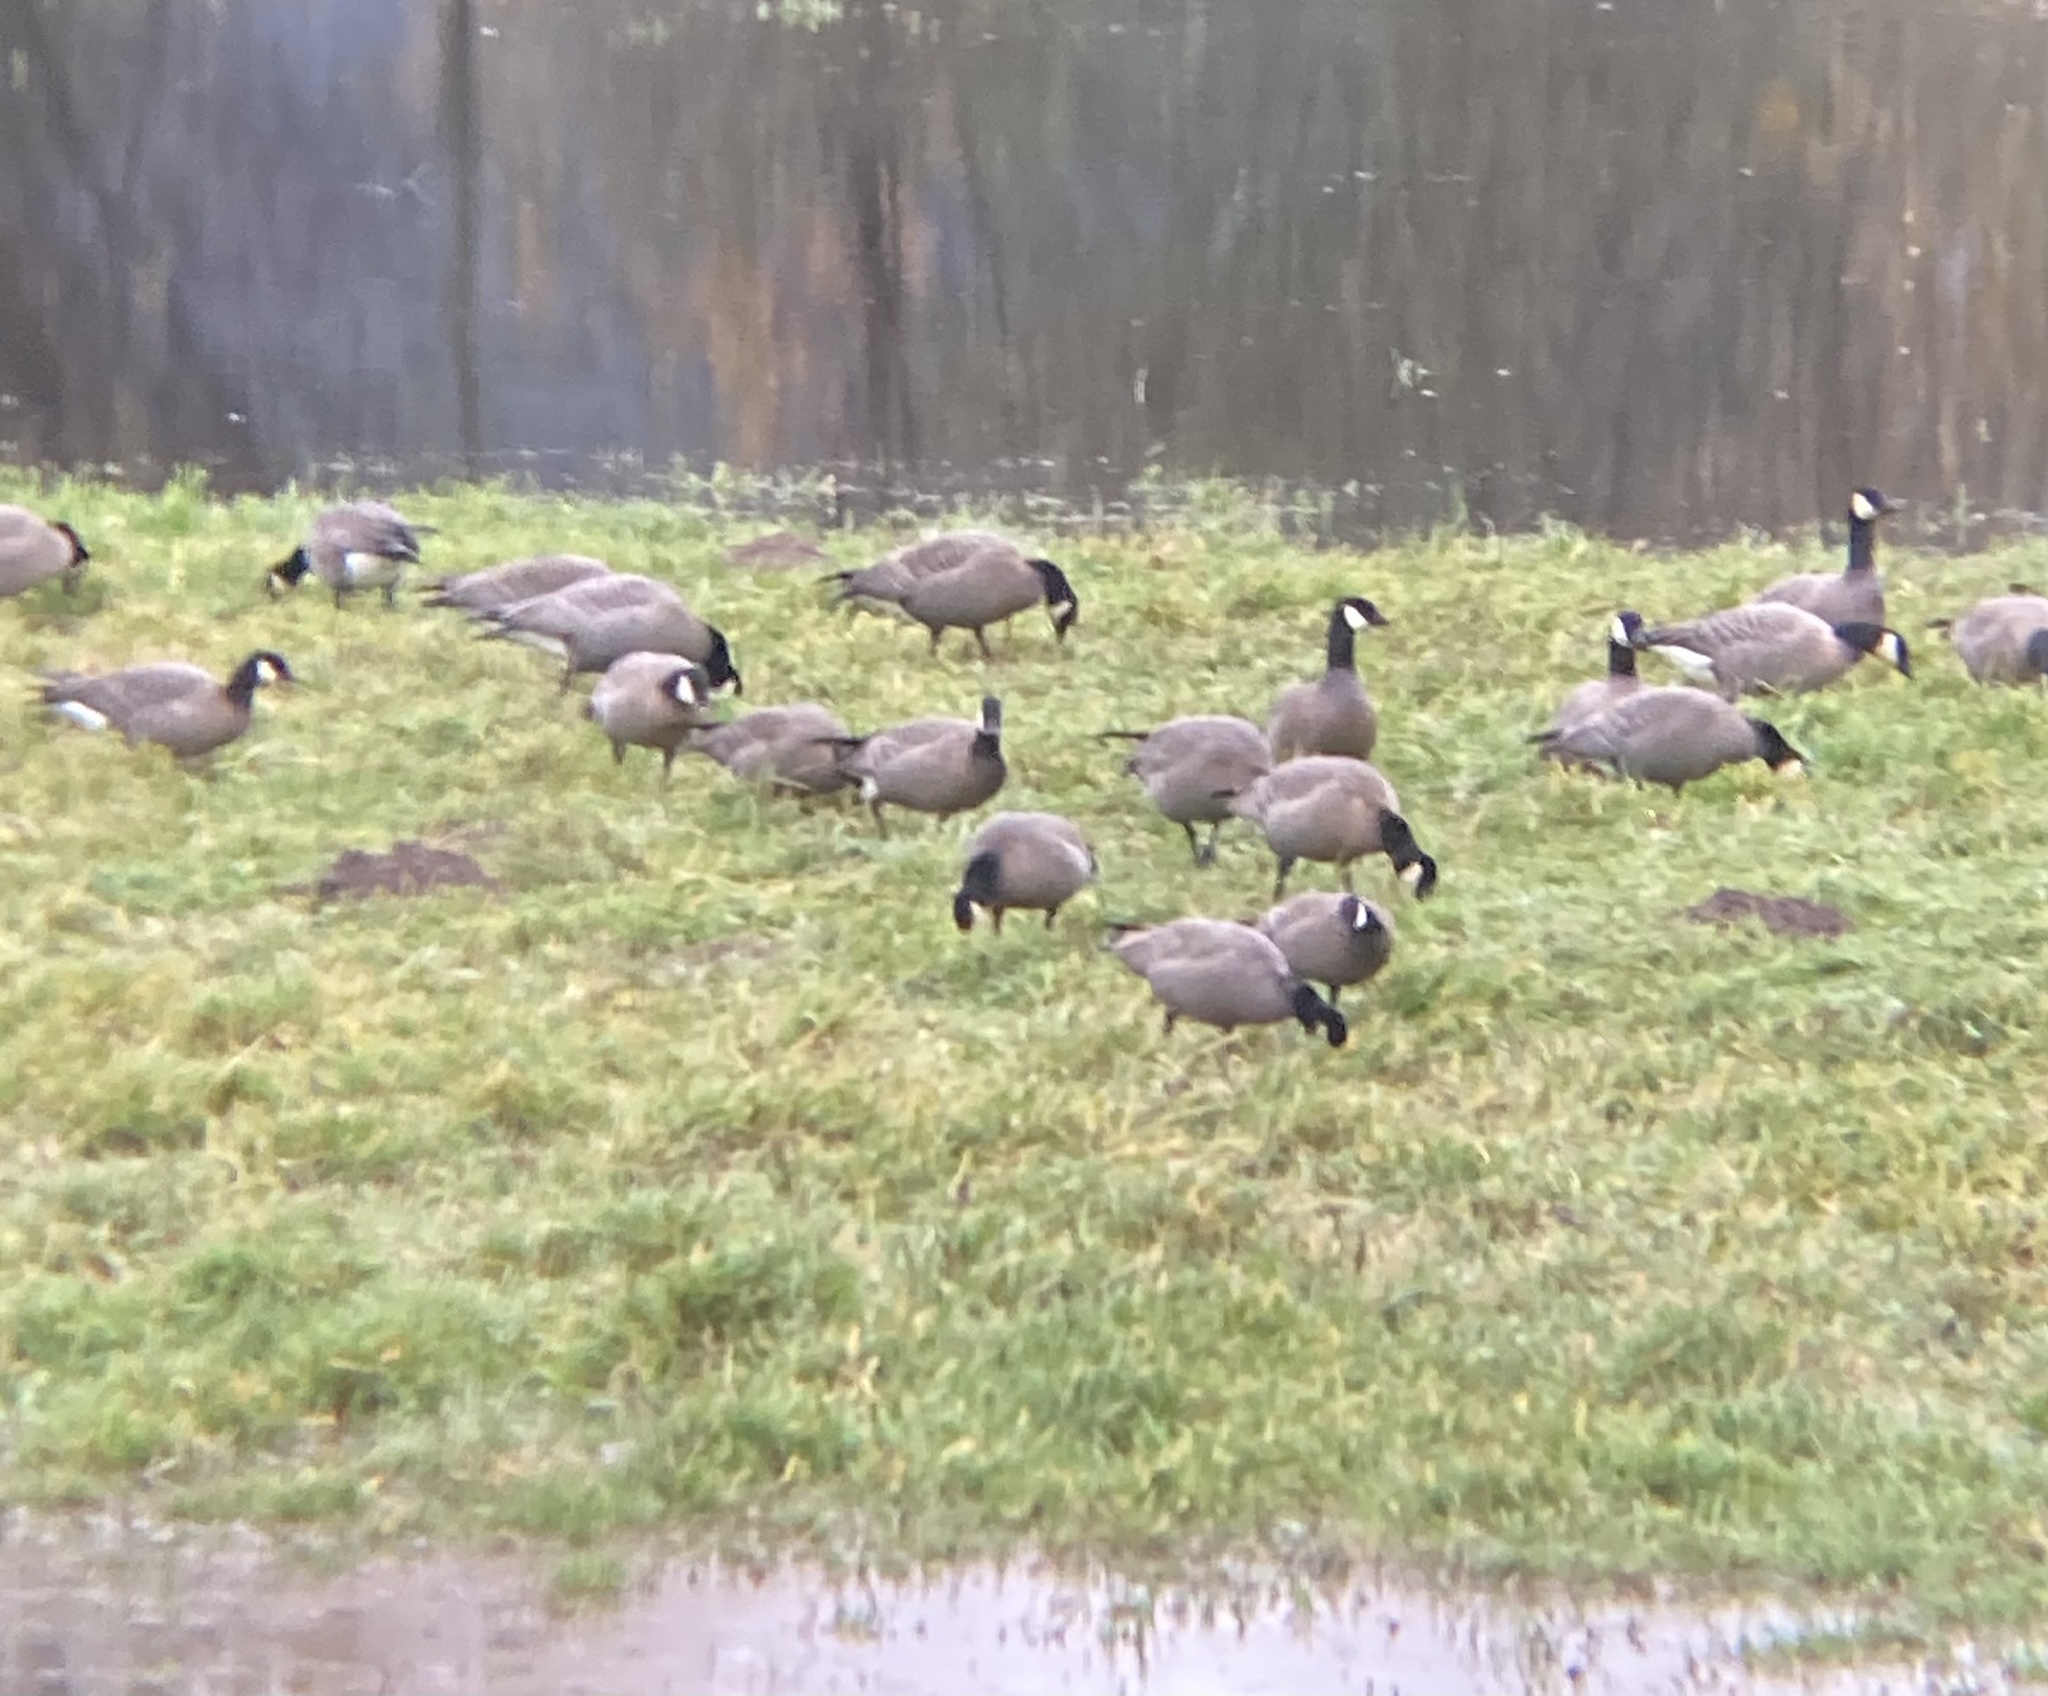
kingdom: Animalia
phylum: Chordata
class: Aves
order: Anseriformes
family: Anatidae
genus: Branta
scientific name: Branta hutchinsii
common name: Cackling goose
